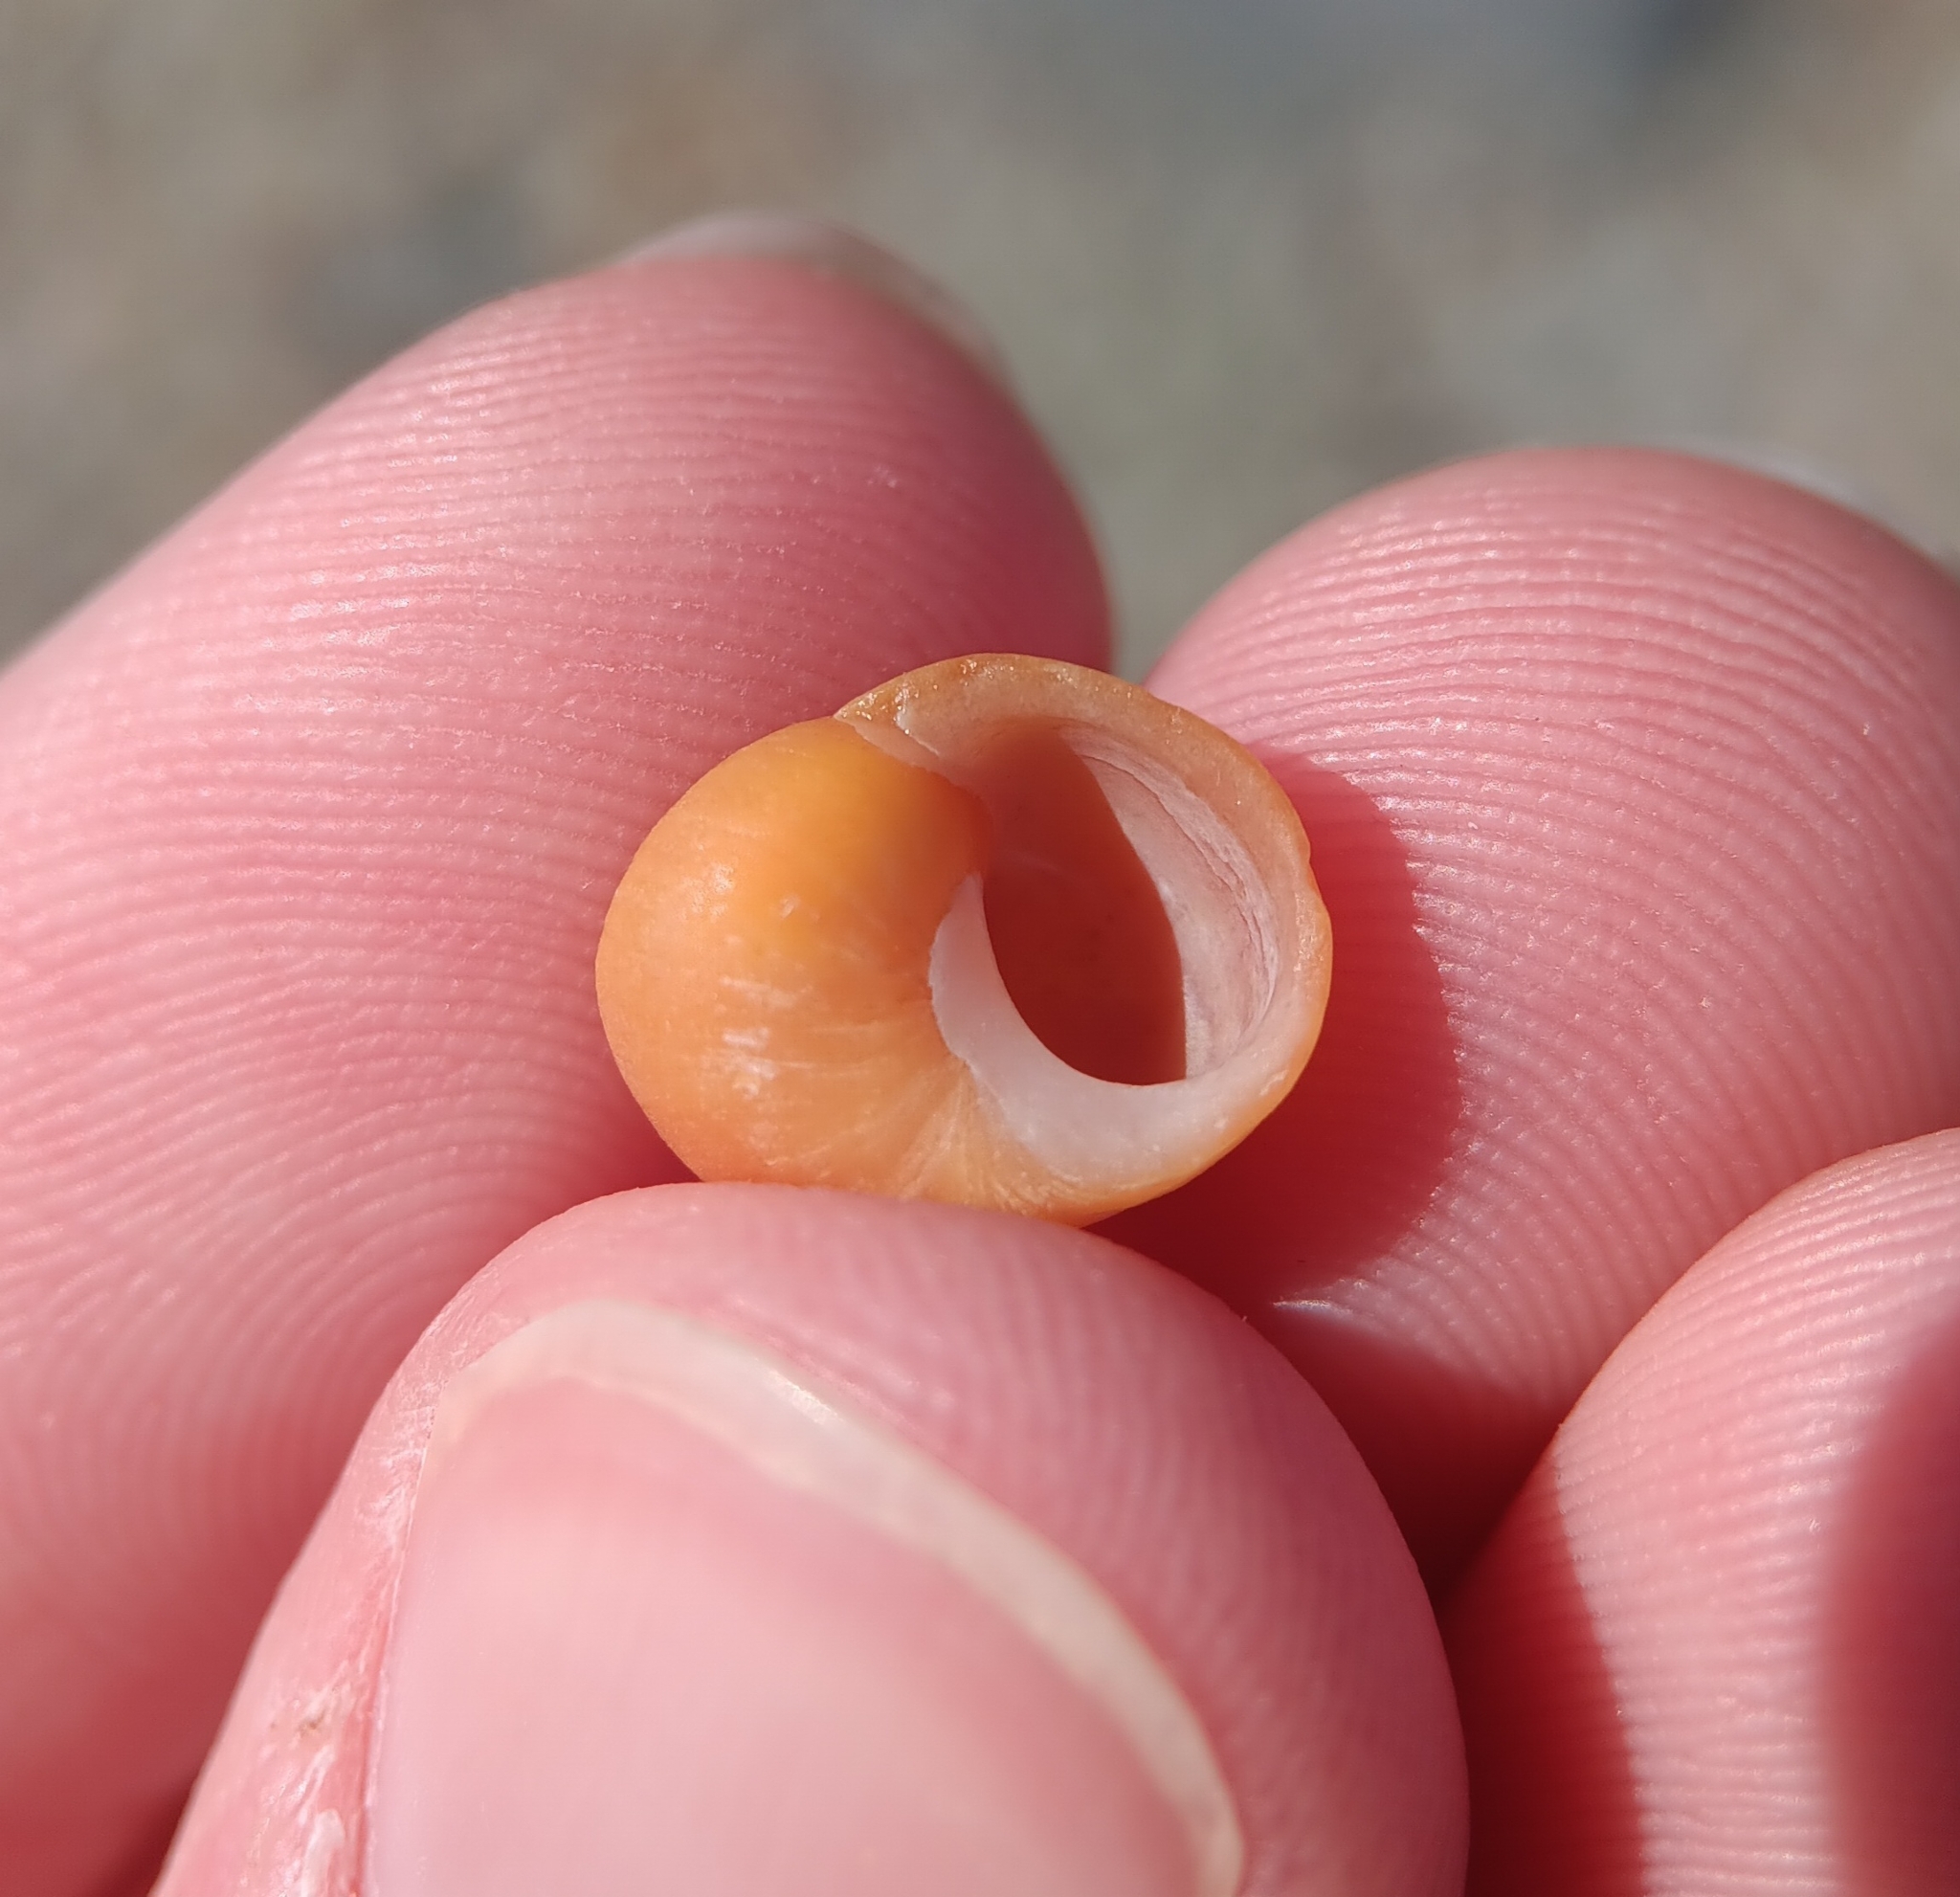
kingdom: Animalia
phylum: Mollusca
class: Gastropoda
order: Littorinimorpha
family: Littorinidae
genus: Littorina
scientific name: Littorina obtusata
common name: Flat periwinkle
